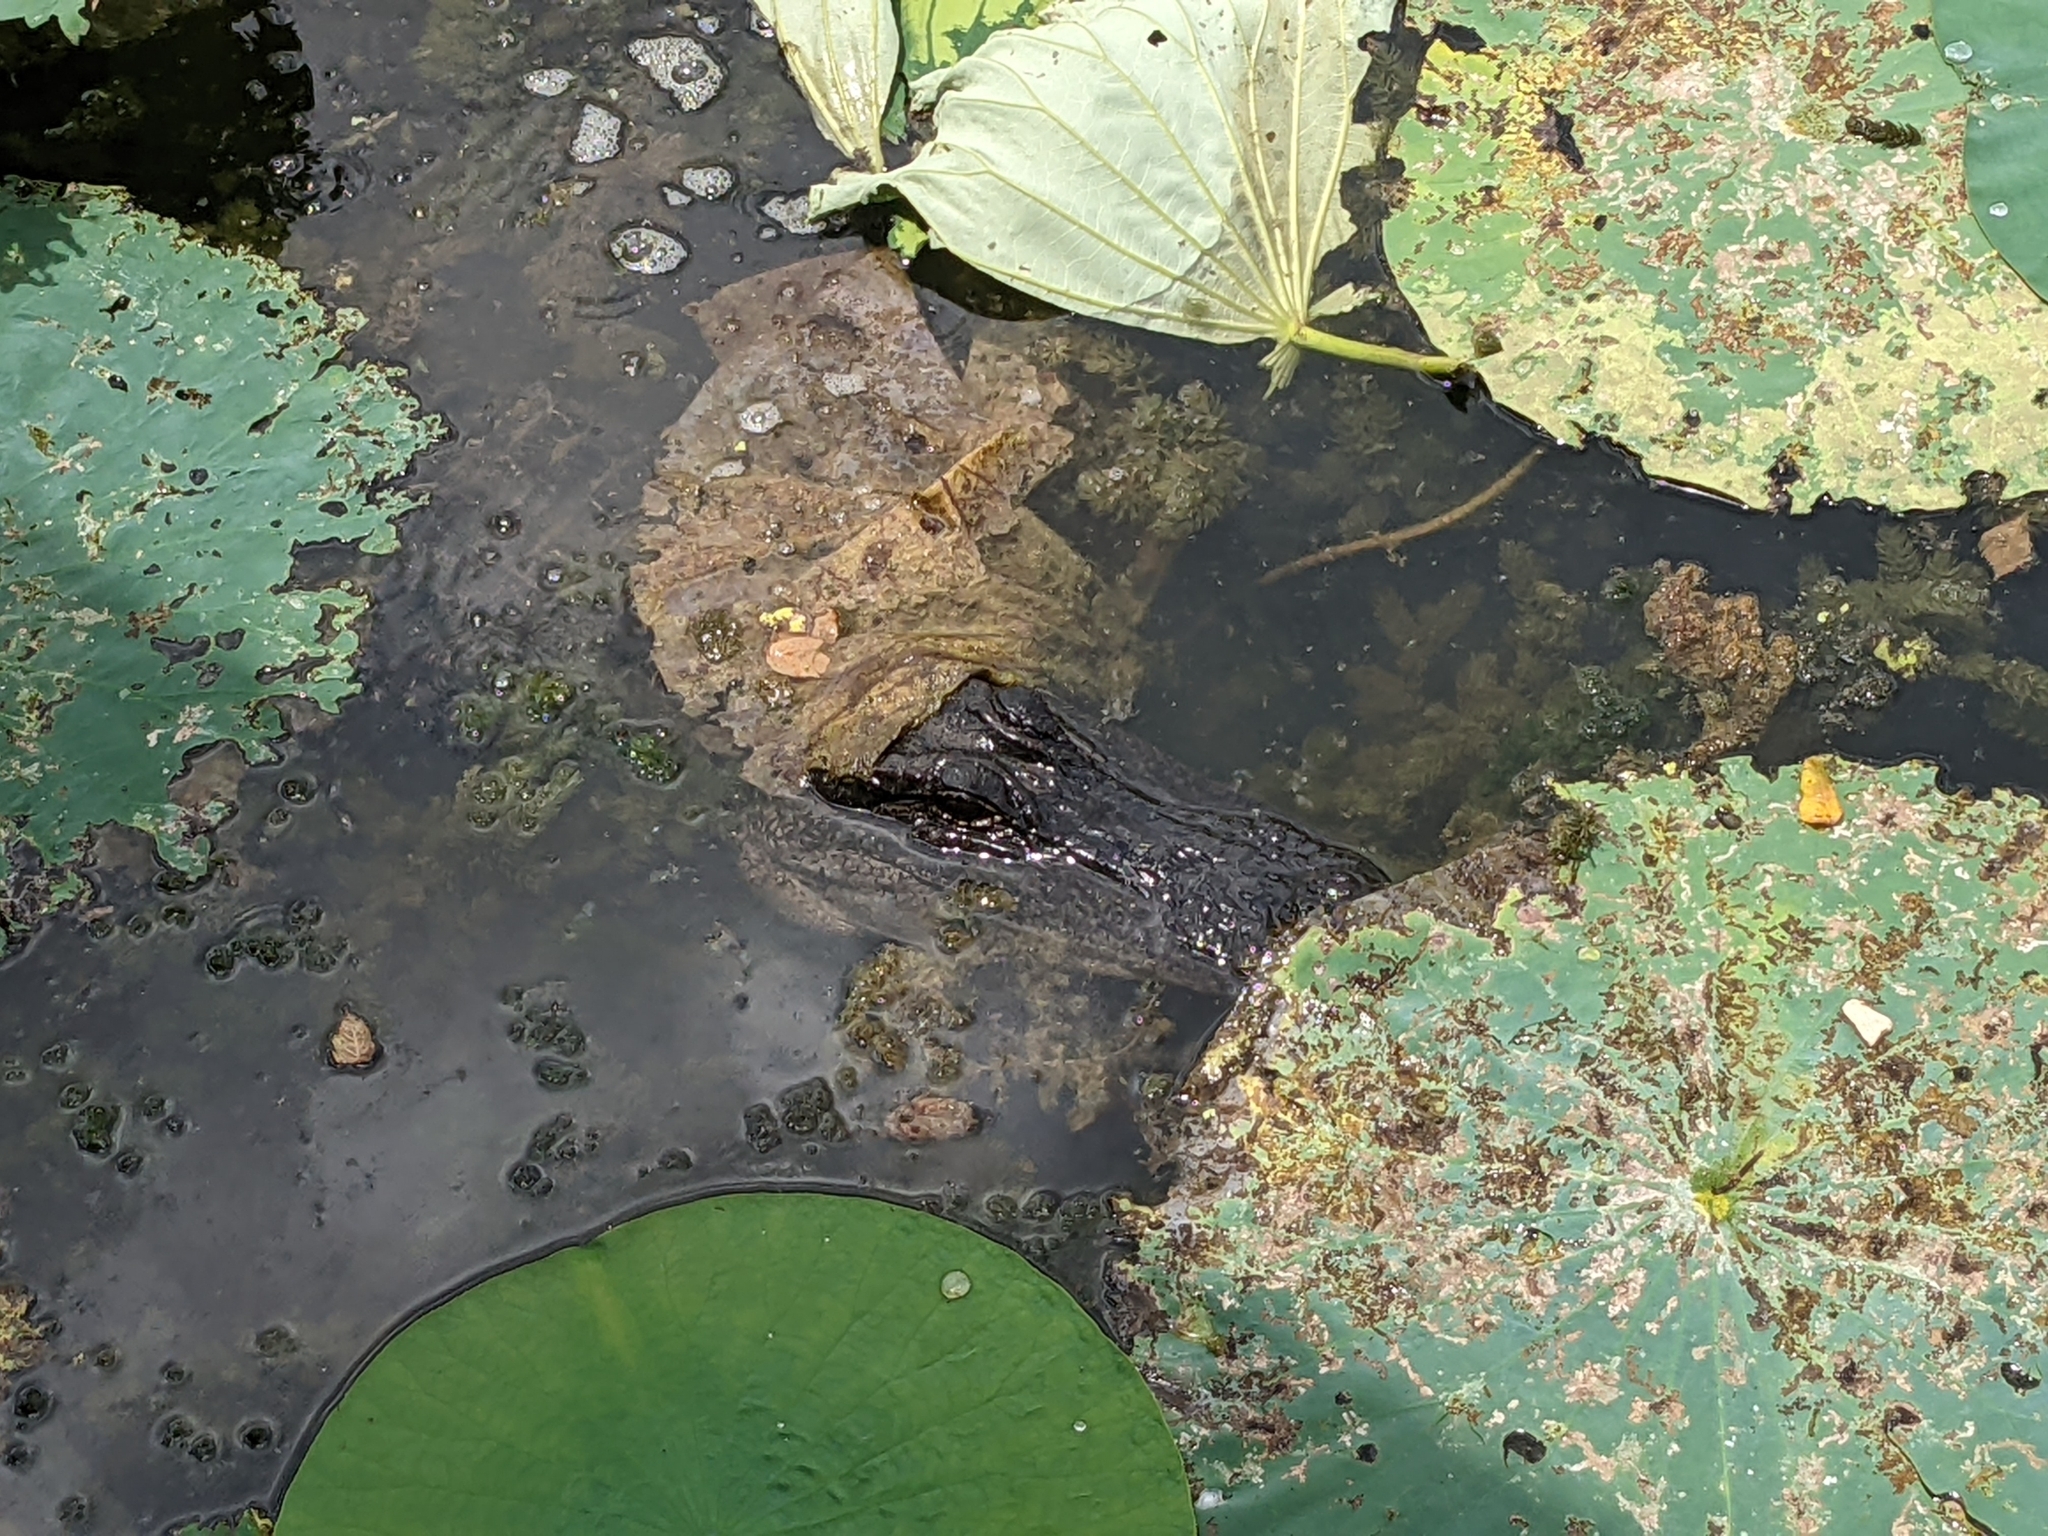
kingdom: Animalia
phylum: Chordata
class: Crocodylia
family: Alligatoridae
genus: Alligator
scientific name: Alligator mississippiensis
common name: American alligator
